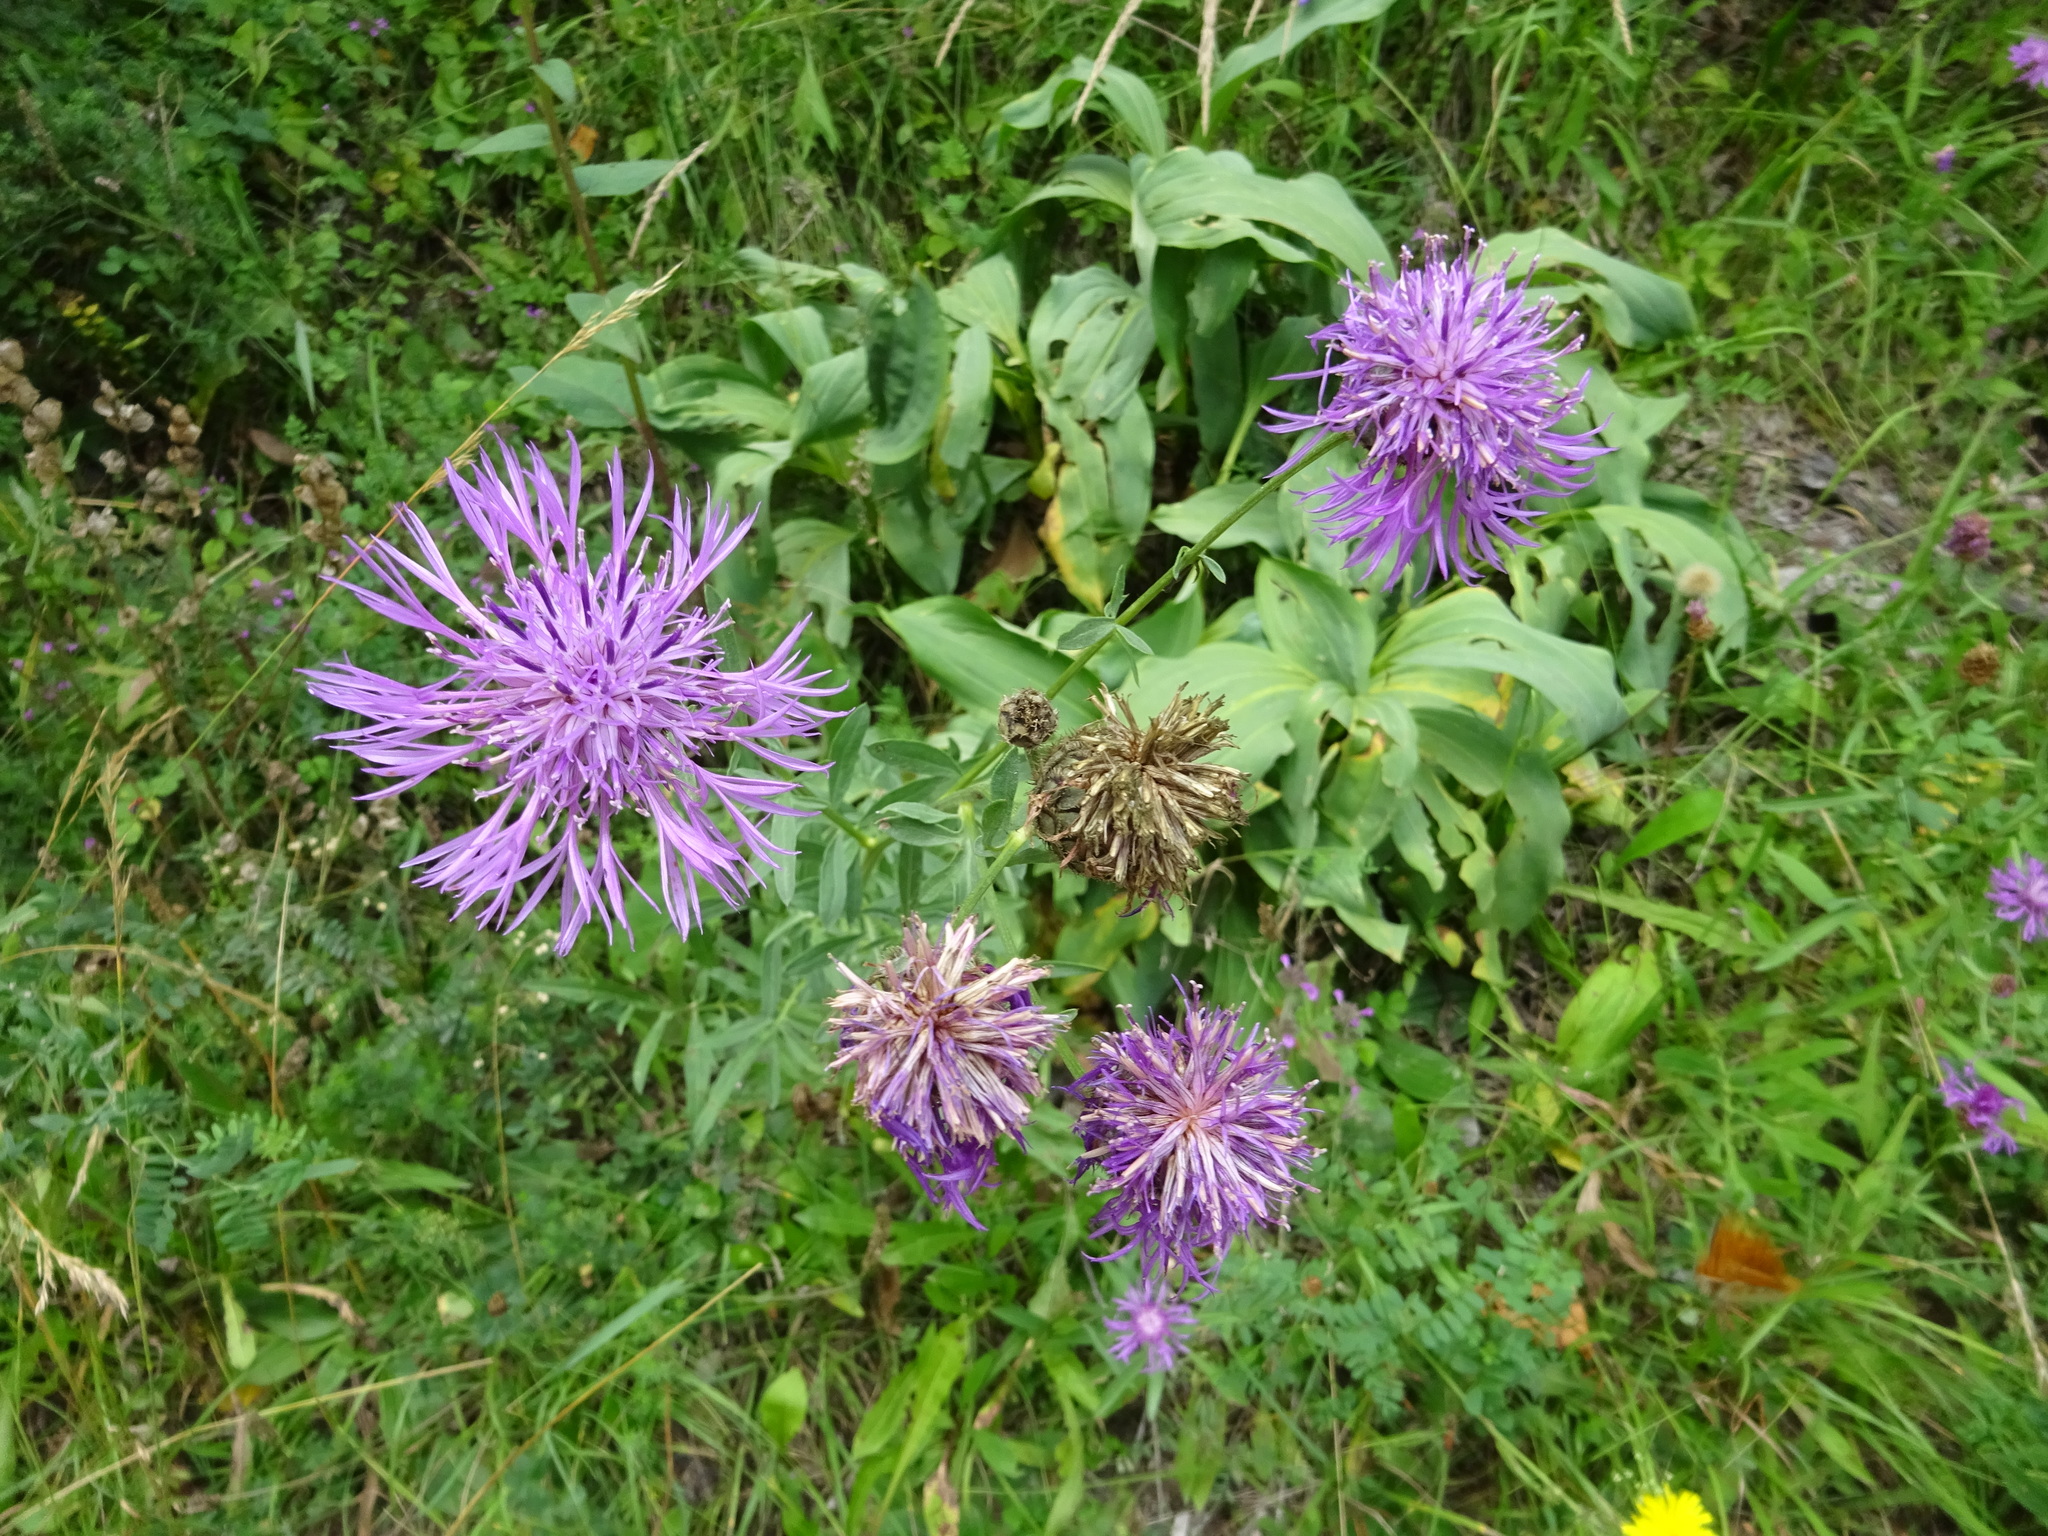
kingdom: Plantae
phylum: Tracheophyta
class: Magnoliopsida
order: Asterales
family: Asteraceae
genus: Centaurea
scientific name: Centaurea scabiosa
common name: Greater knapweed
